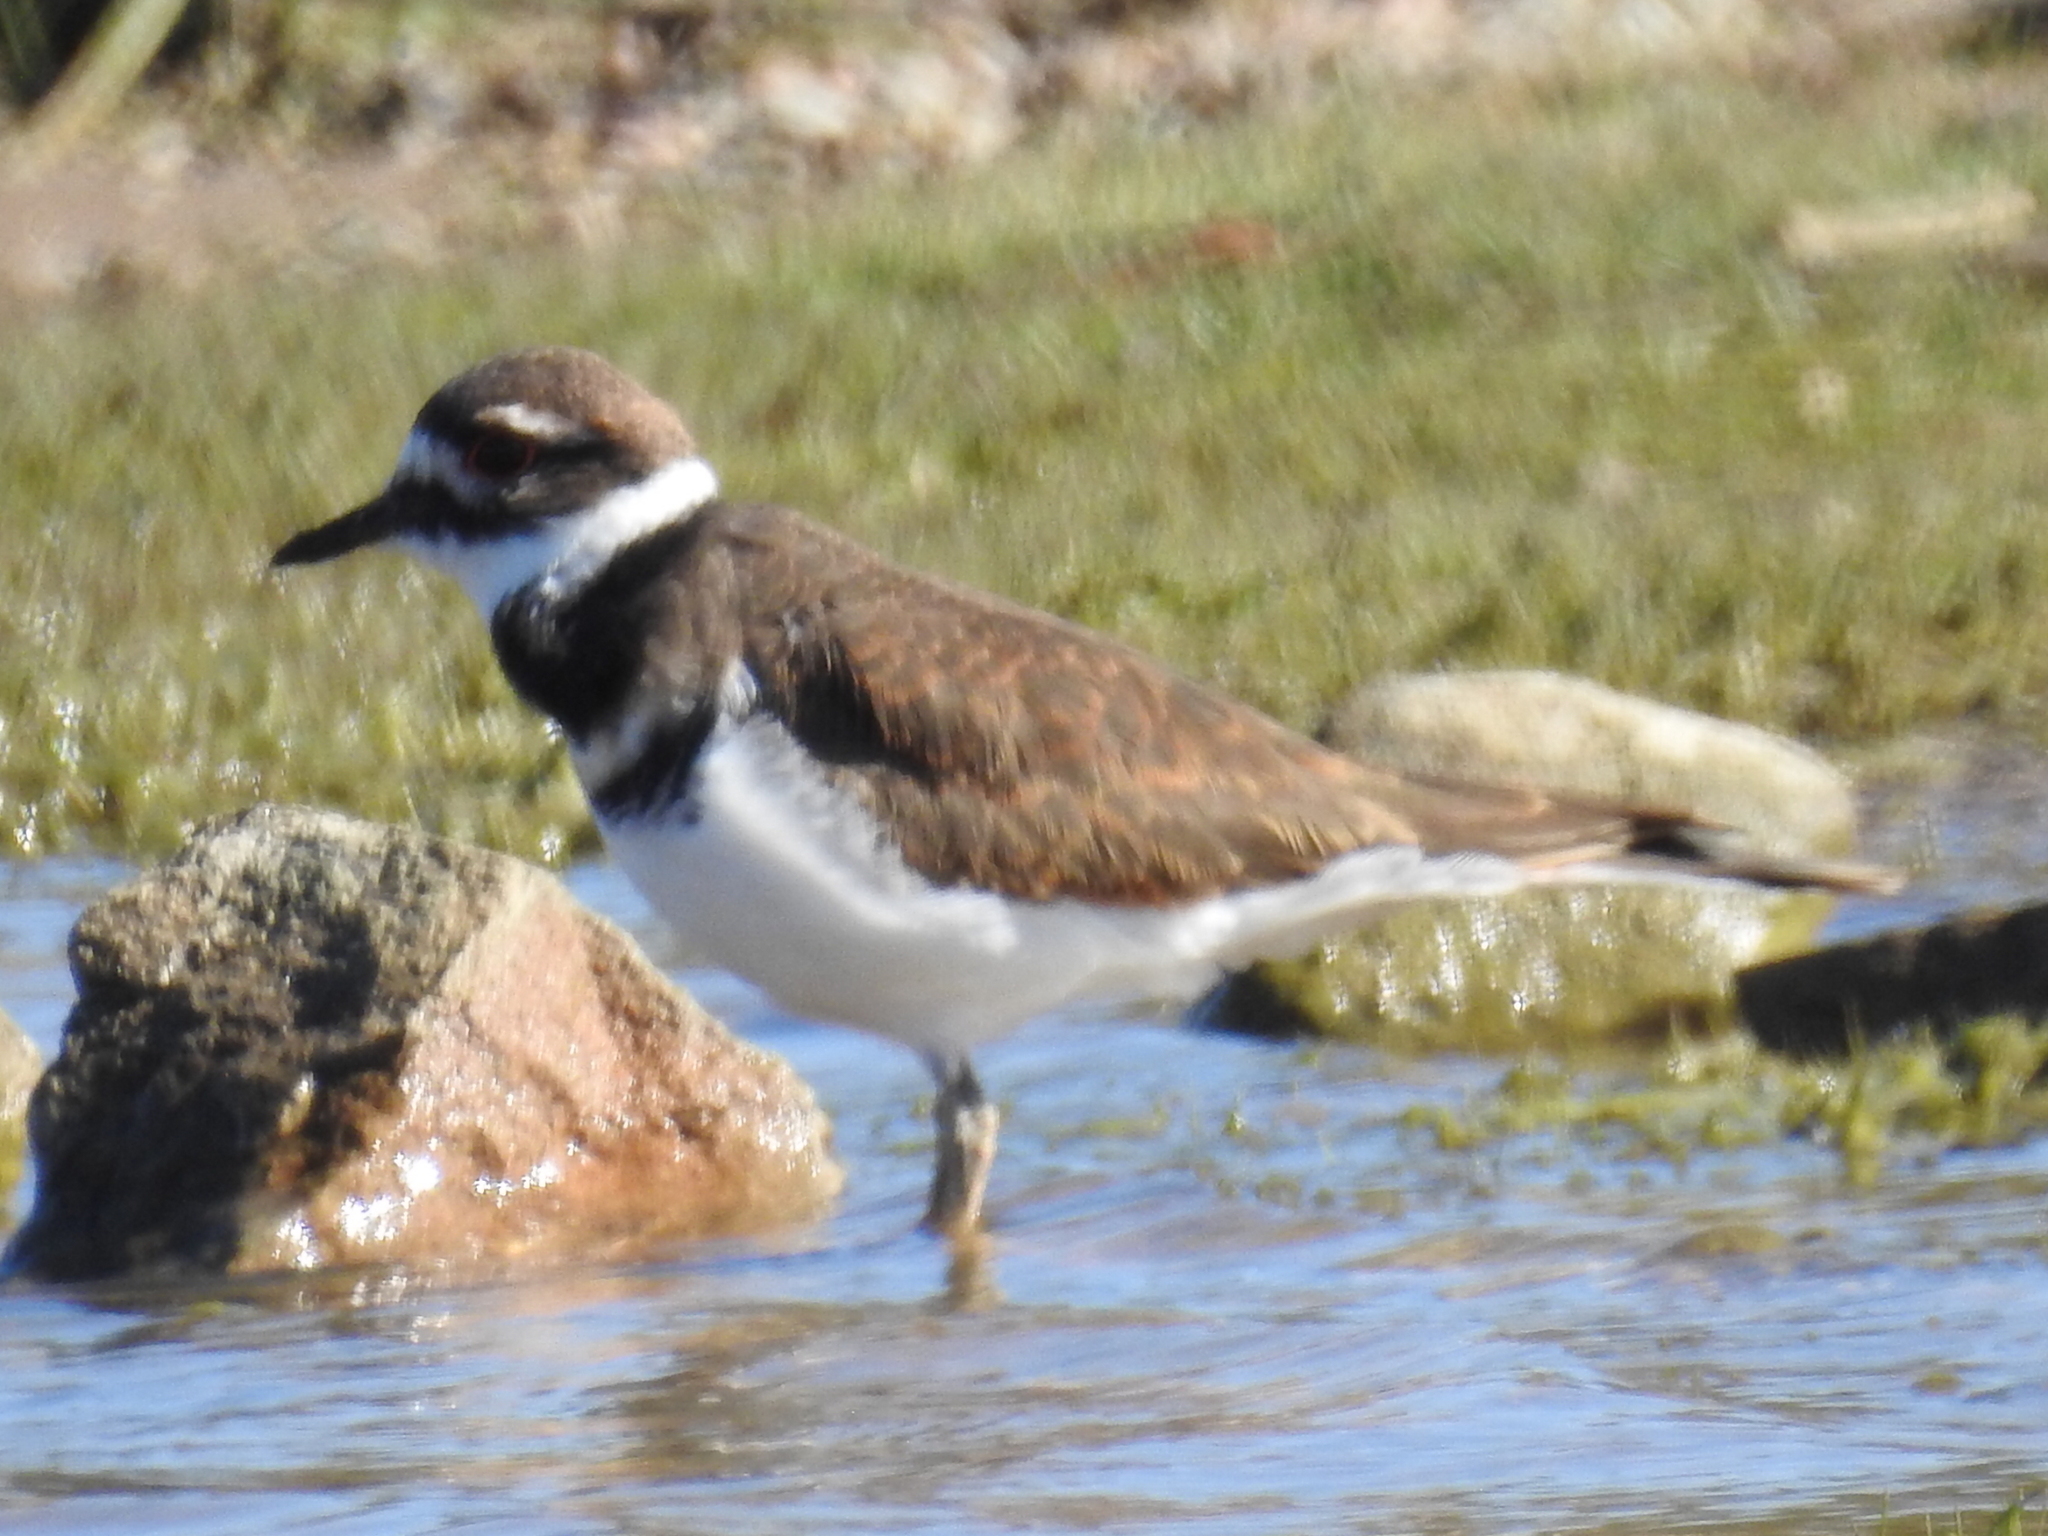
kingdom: Animalia
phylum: Chordata
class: Aves
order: Charadriiformes
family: Charadriidae
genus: Charadrius
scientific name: Charadrius vociferus
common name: Killdeer
